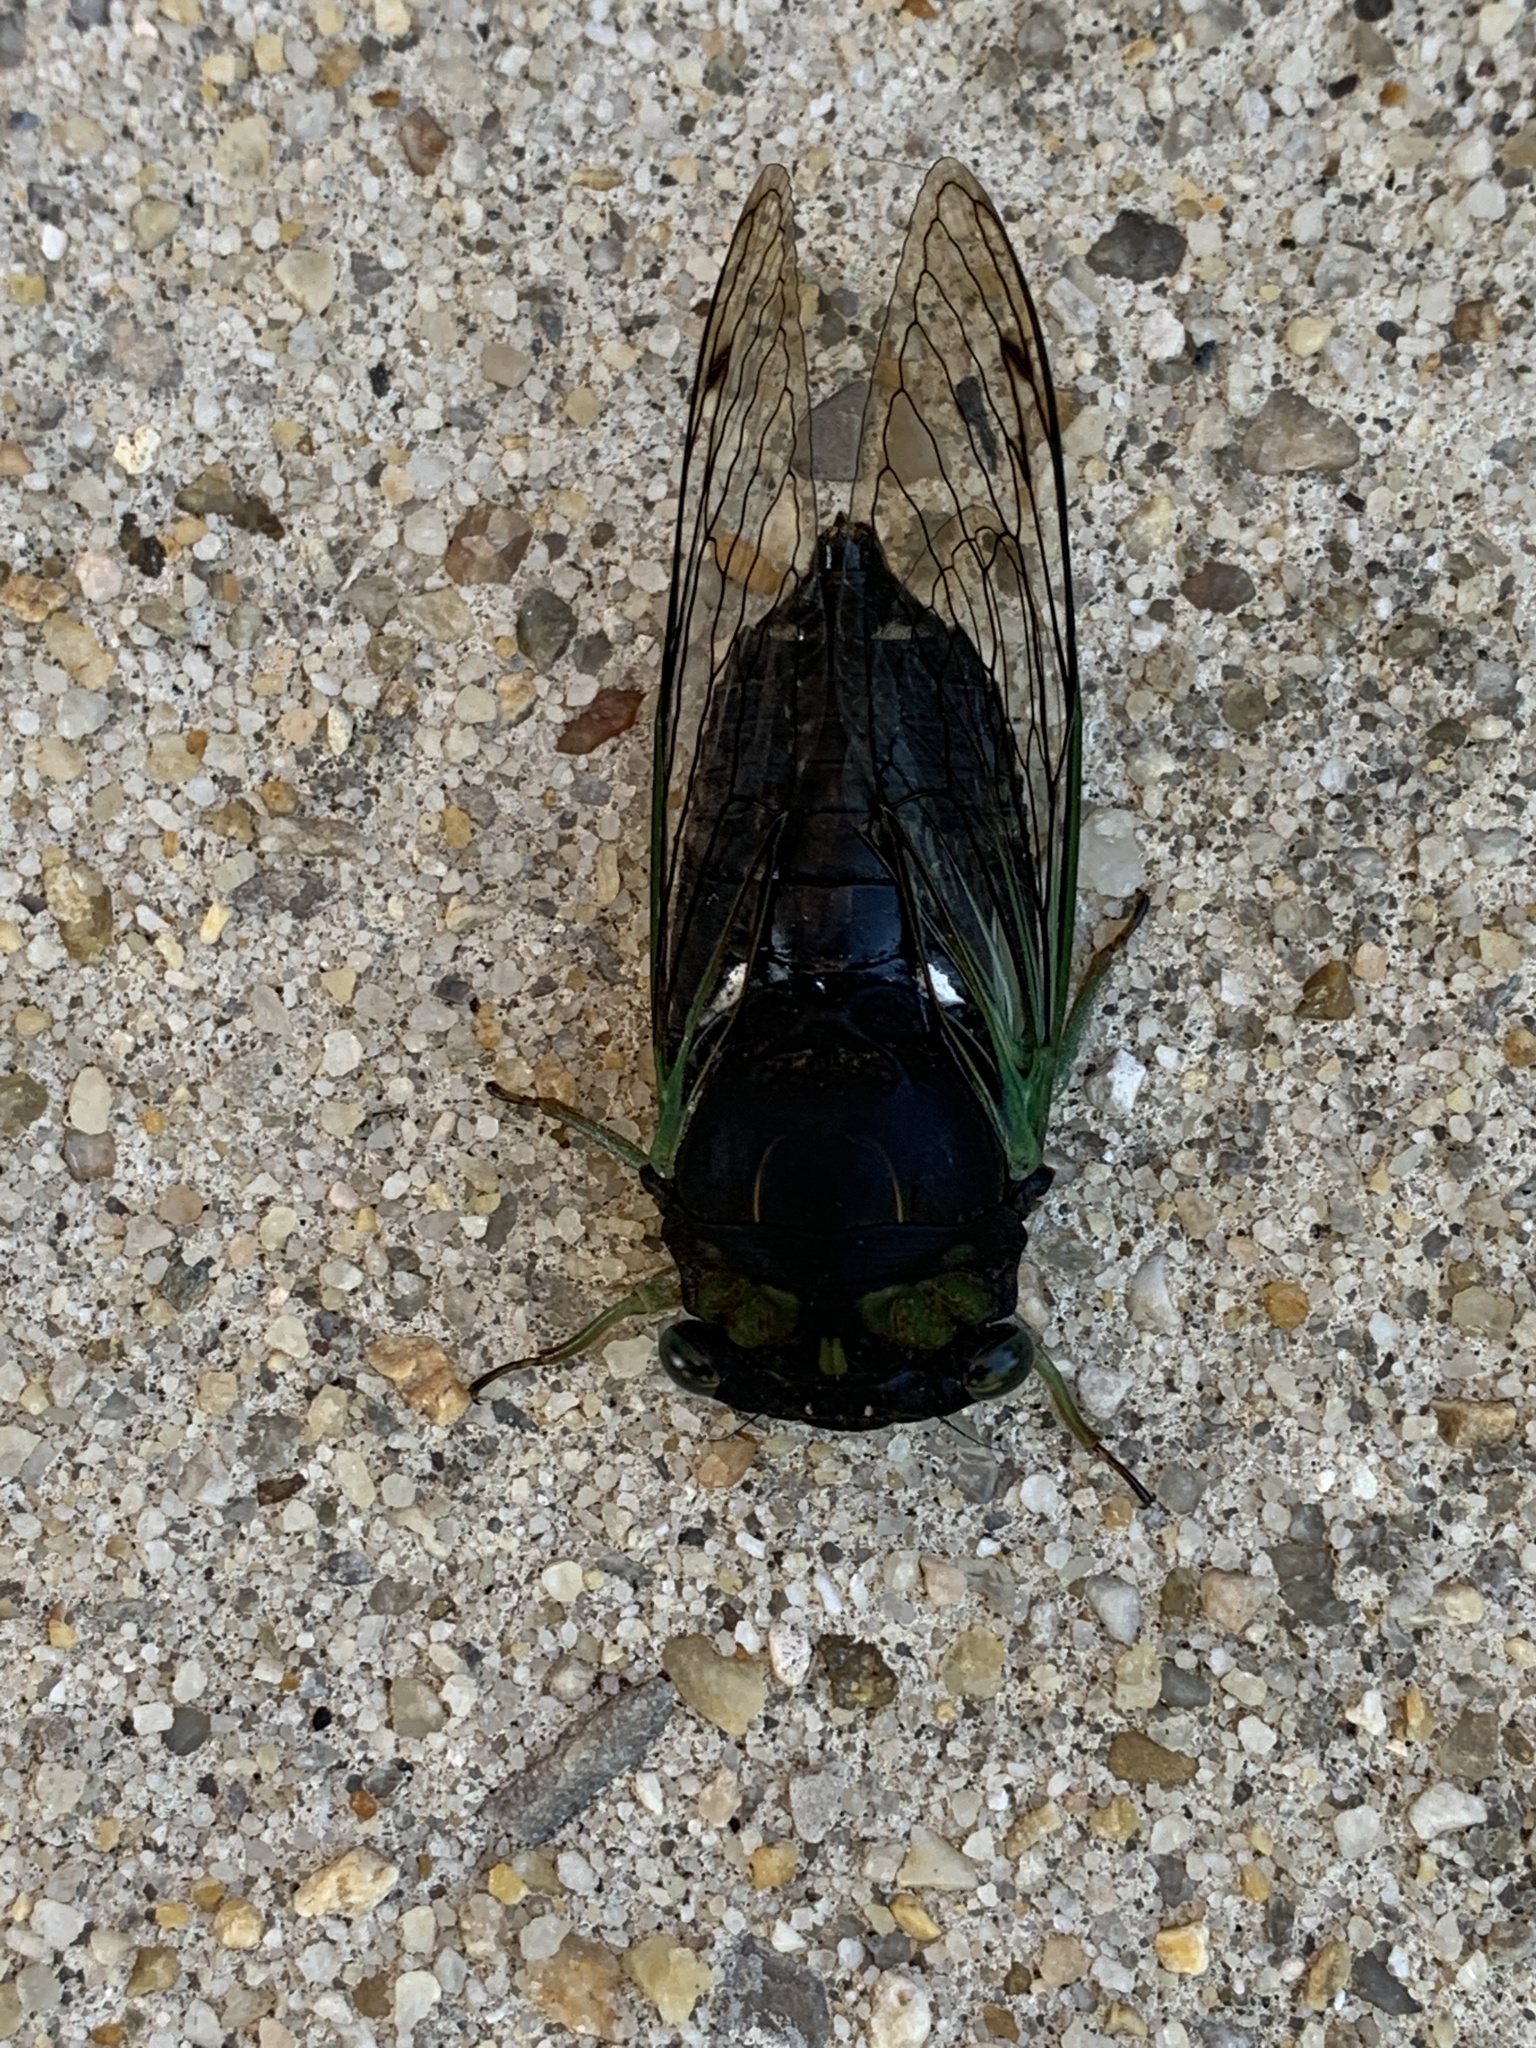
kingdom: Animalia
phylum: Arthropoda
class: Insecta
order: Hemiptera
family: Cicadidae
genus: Neotibicen
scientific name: Neotibicen tibicen
